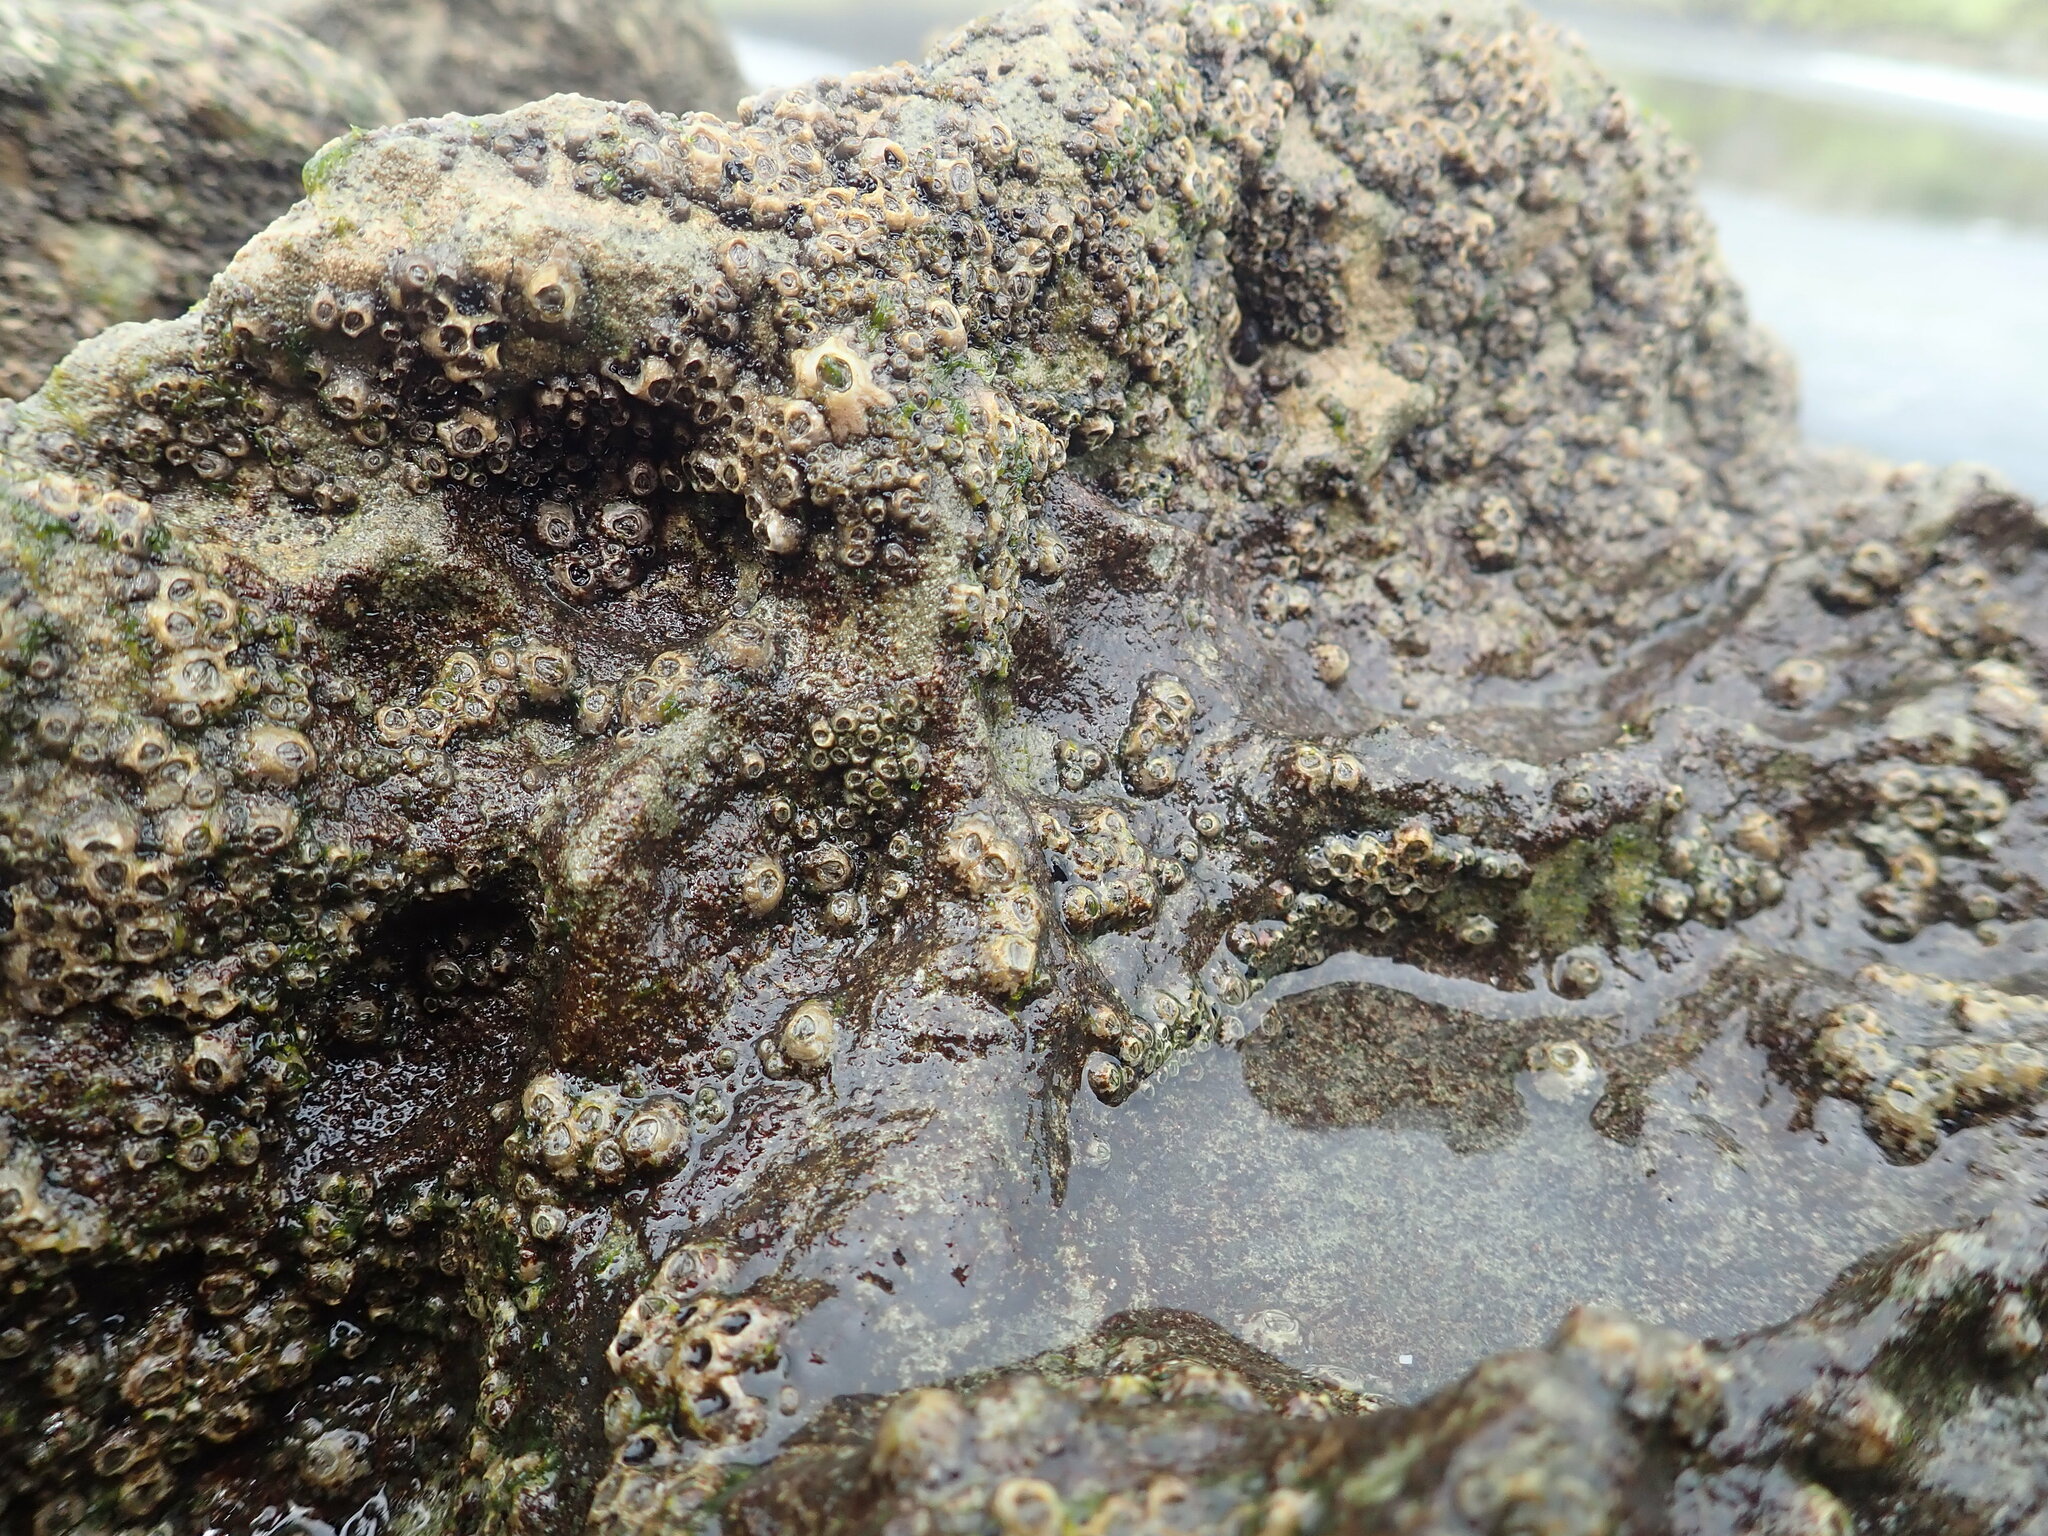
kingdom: Animalia
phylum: Arthropoda
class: Maxillopoda
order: Sessilia
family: Chthamalidae
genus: Chamaesipho
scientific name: Chamaesipho columna
